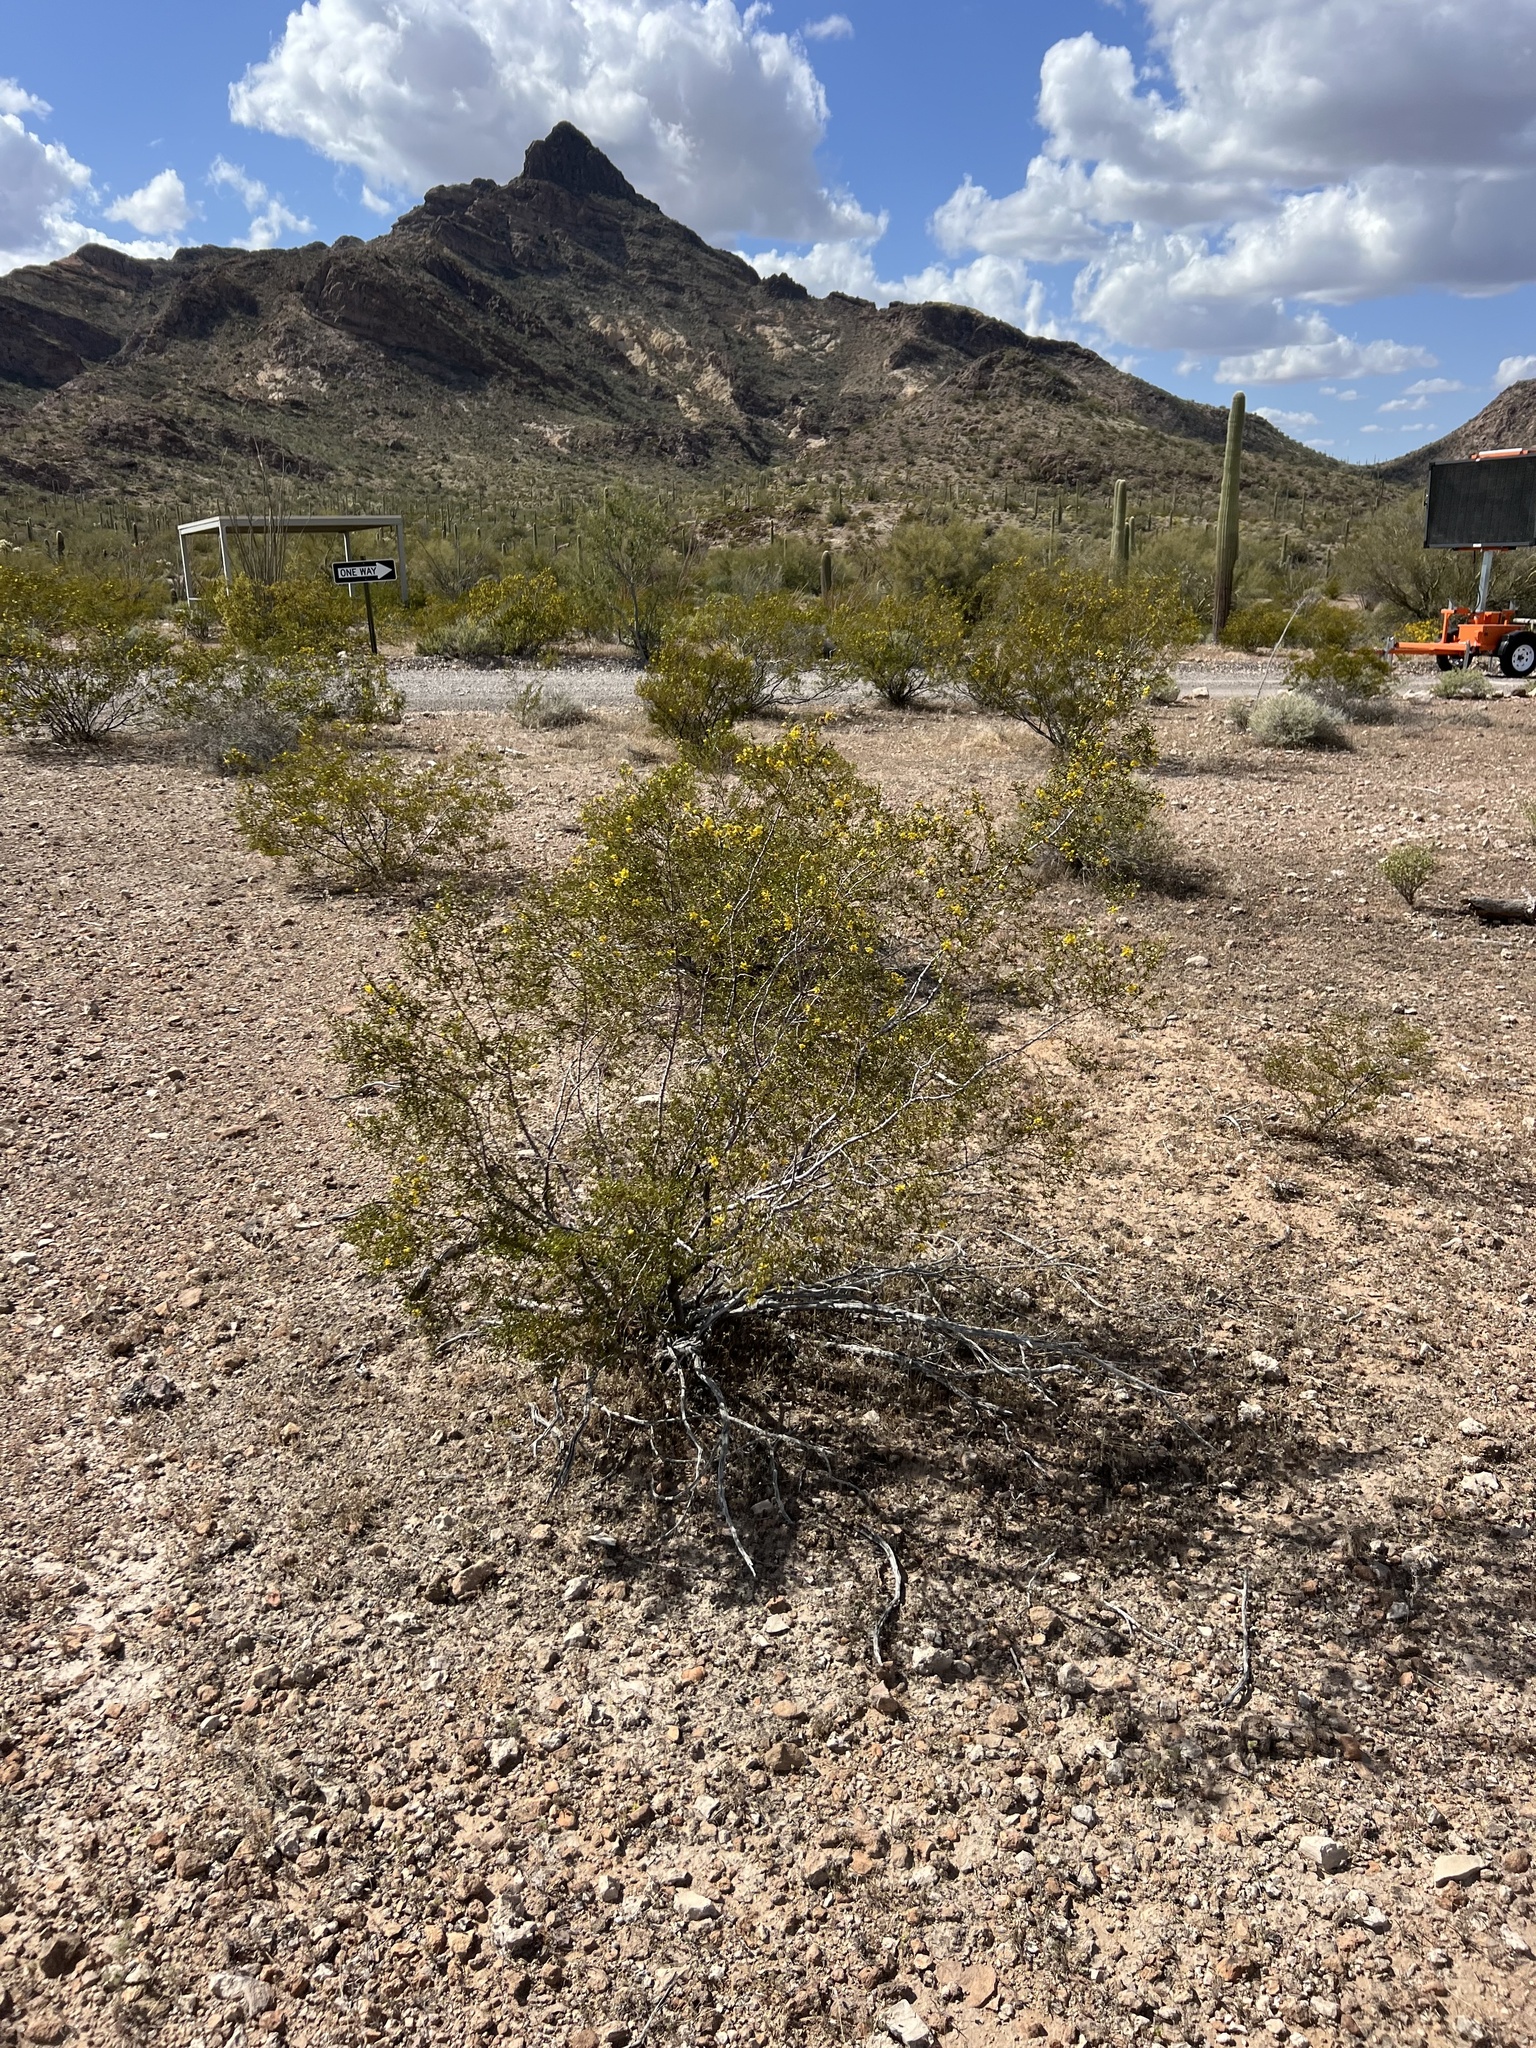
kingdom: Plantae
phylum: Tracheophyta
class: Magnoliopsida
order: Zygophyllales
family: Zygophyllaceae
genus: Larrea
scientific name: Larrea tridentata
